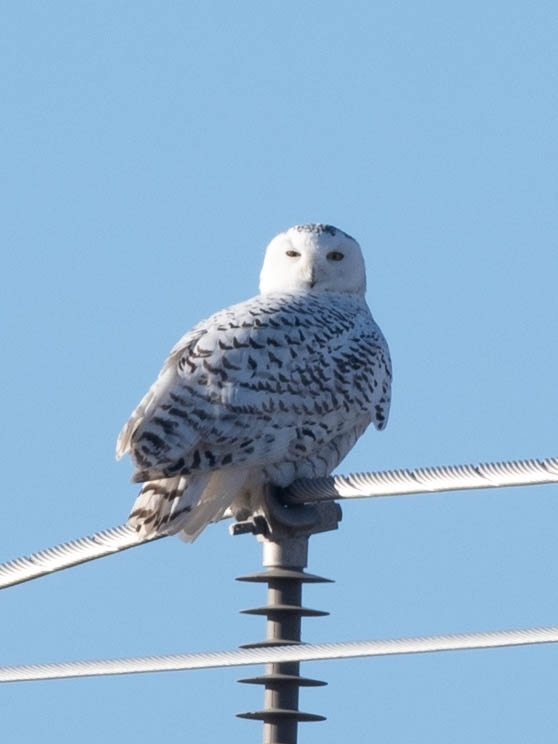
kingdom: Animalia
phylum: Chordata
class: Aves
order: Strigiformes
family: Strigidae
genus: Bubo
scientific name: Bubo scandiacus
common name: Snowy owl
